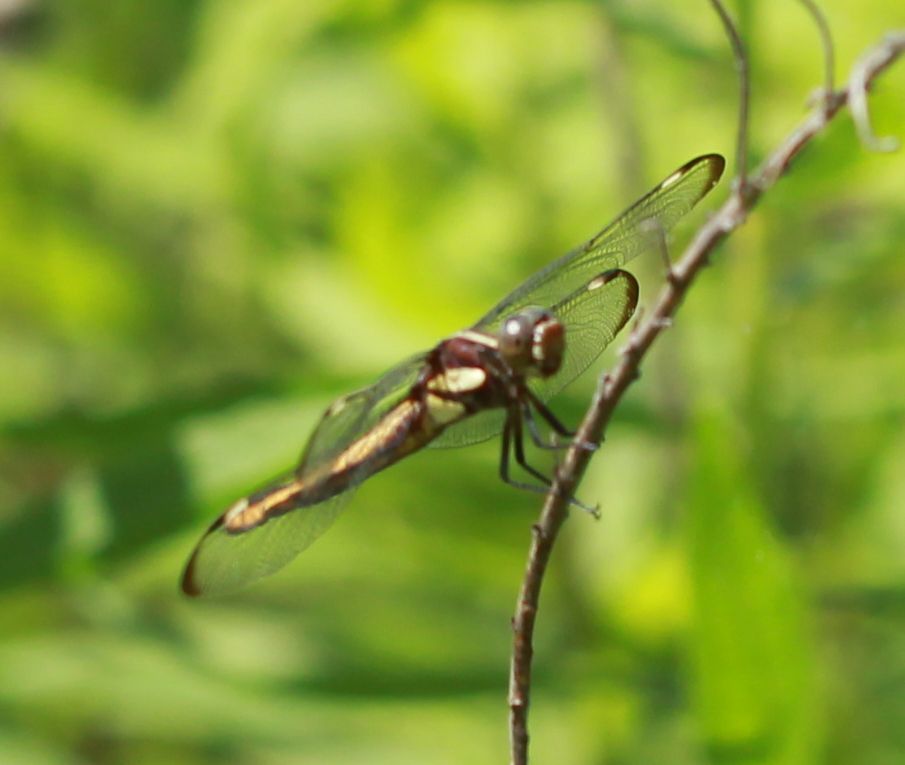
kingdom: Animalia
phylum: Arthropoda
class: Insecta
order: Odonata
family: Libellulidae
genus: Libellula
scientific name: Libellula cyanea
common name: Spangled skimmer
